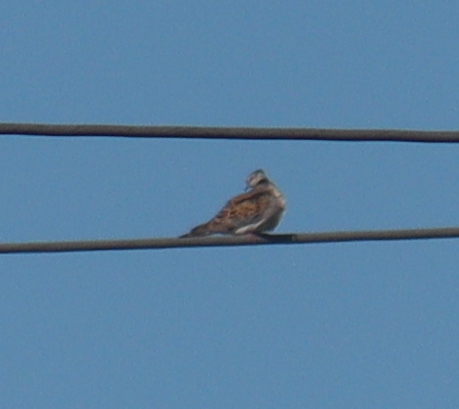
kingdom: Animalia
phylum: Chordata
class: Aves
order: Columbiformes
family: Columbidae
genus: Streptopelia
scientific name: Streptopelia turtur
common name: European turtle dove
